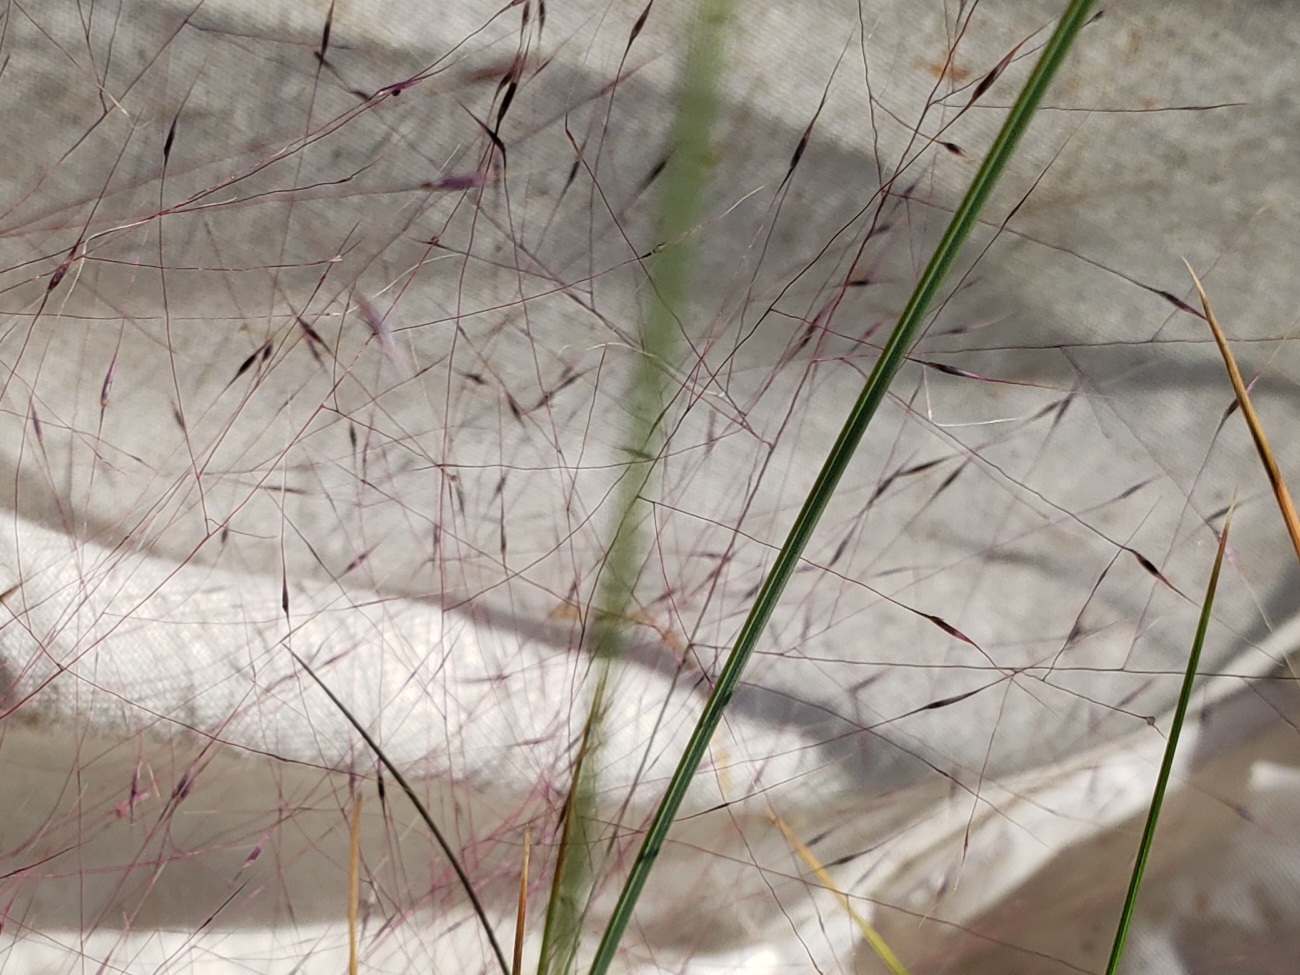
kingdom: Plantae
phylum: Tracheophyta
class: Liliopsida
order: Poales
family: Poaceae
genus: Muhlenbergia
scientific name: Muhlenbergia capillaris
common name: Purple grass
